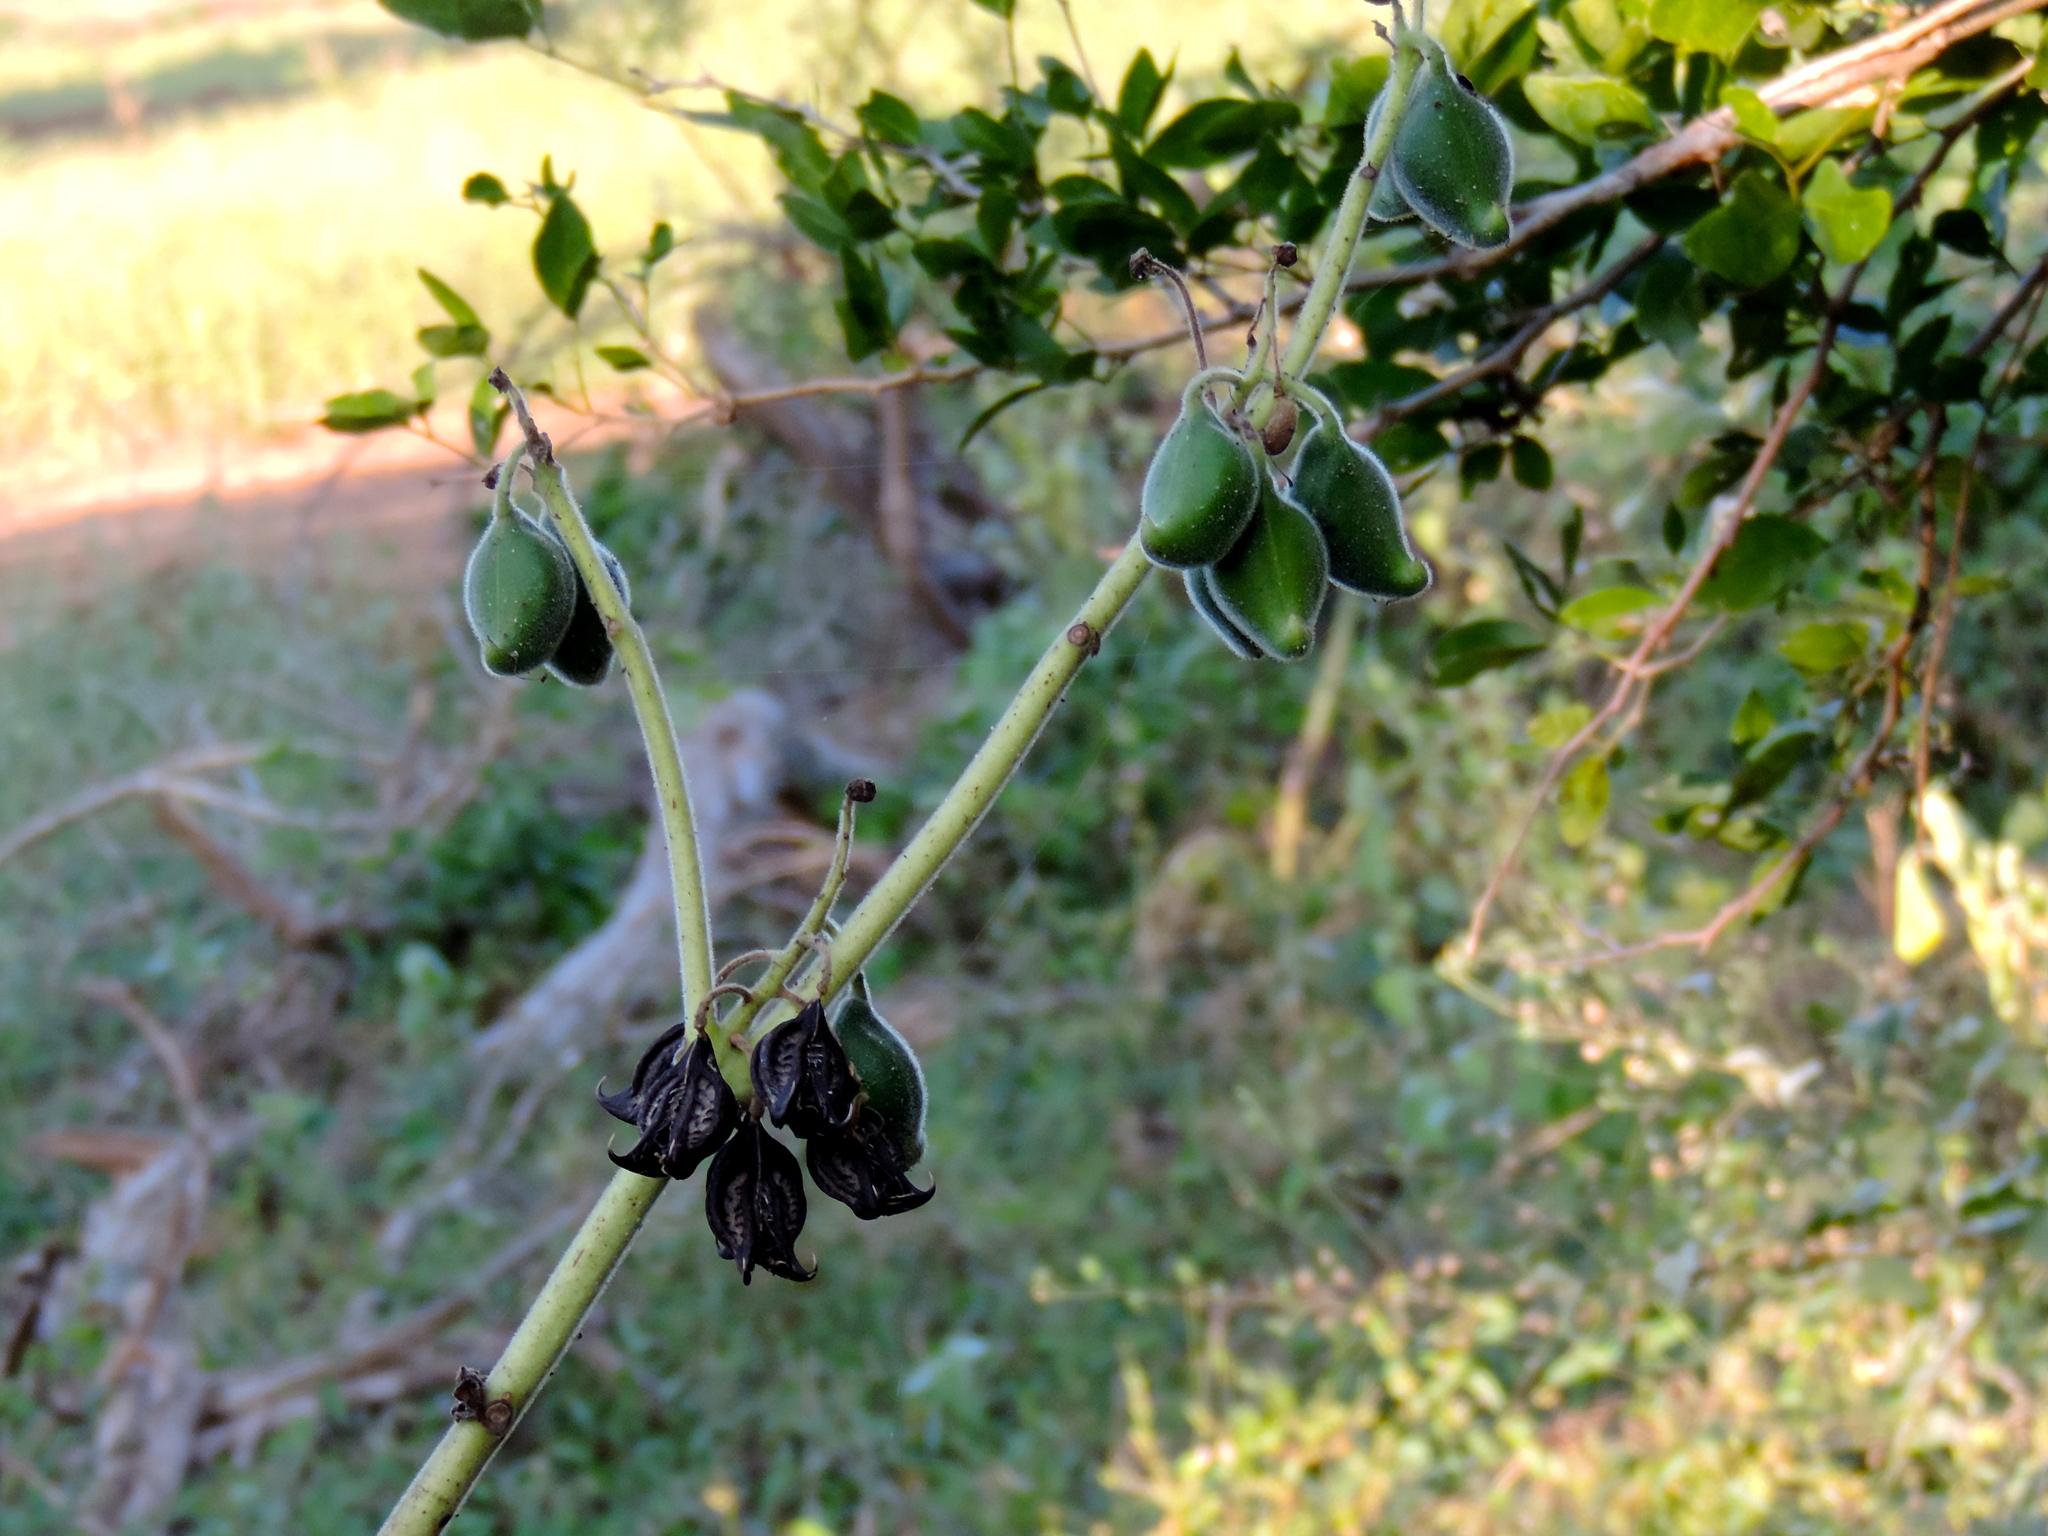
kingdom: Plantae
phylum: Tracheophyta
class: Magnoliopsida
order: Lamiales
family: Martyniaceae
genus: Martynia
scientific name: Martynia annua
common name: Tiger's-claw
